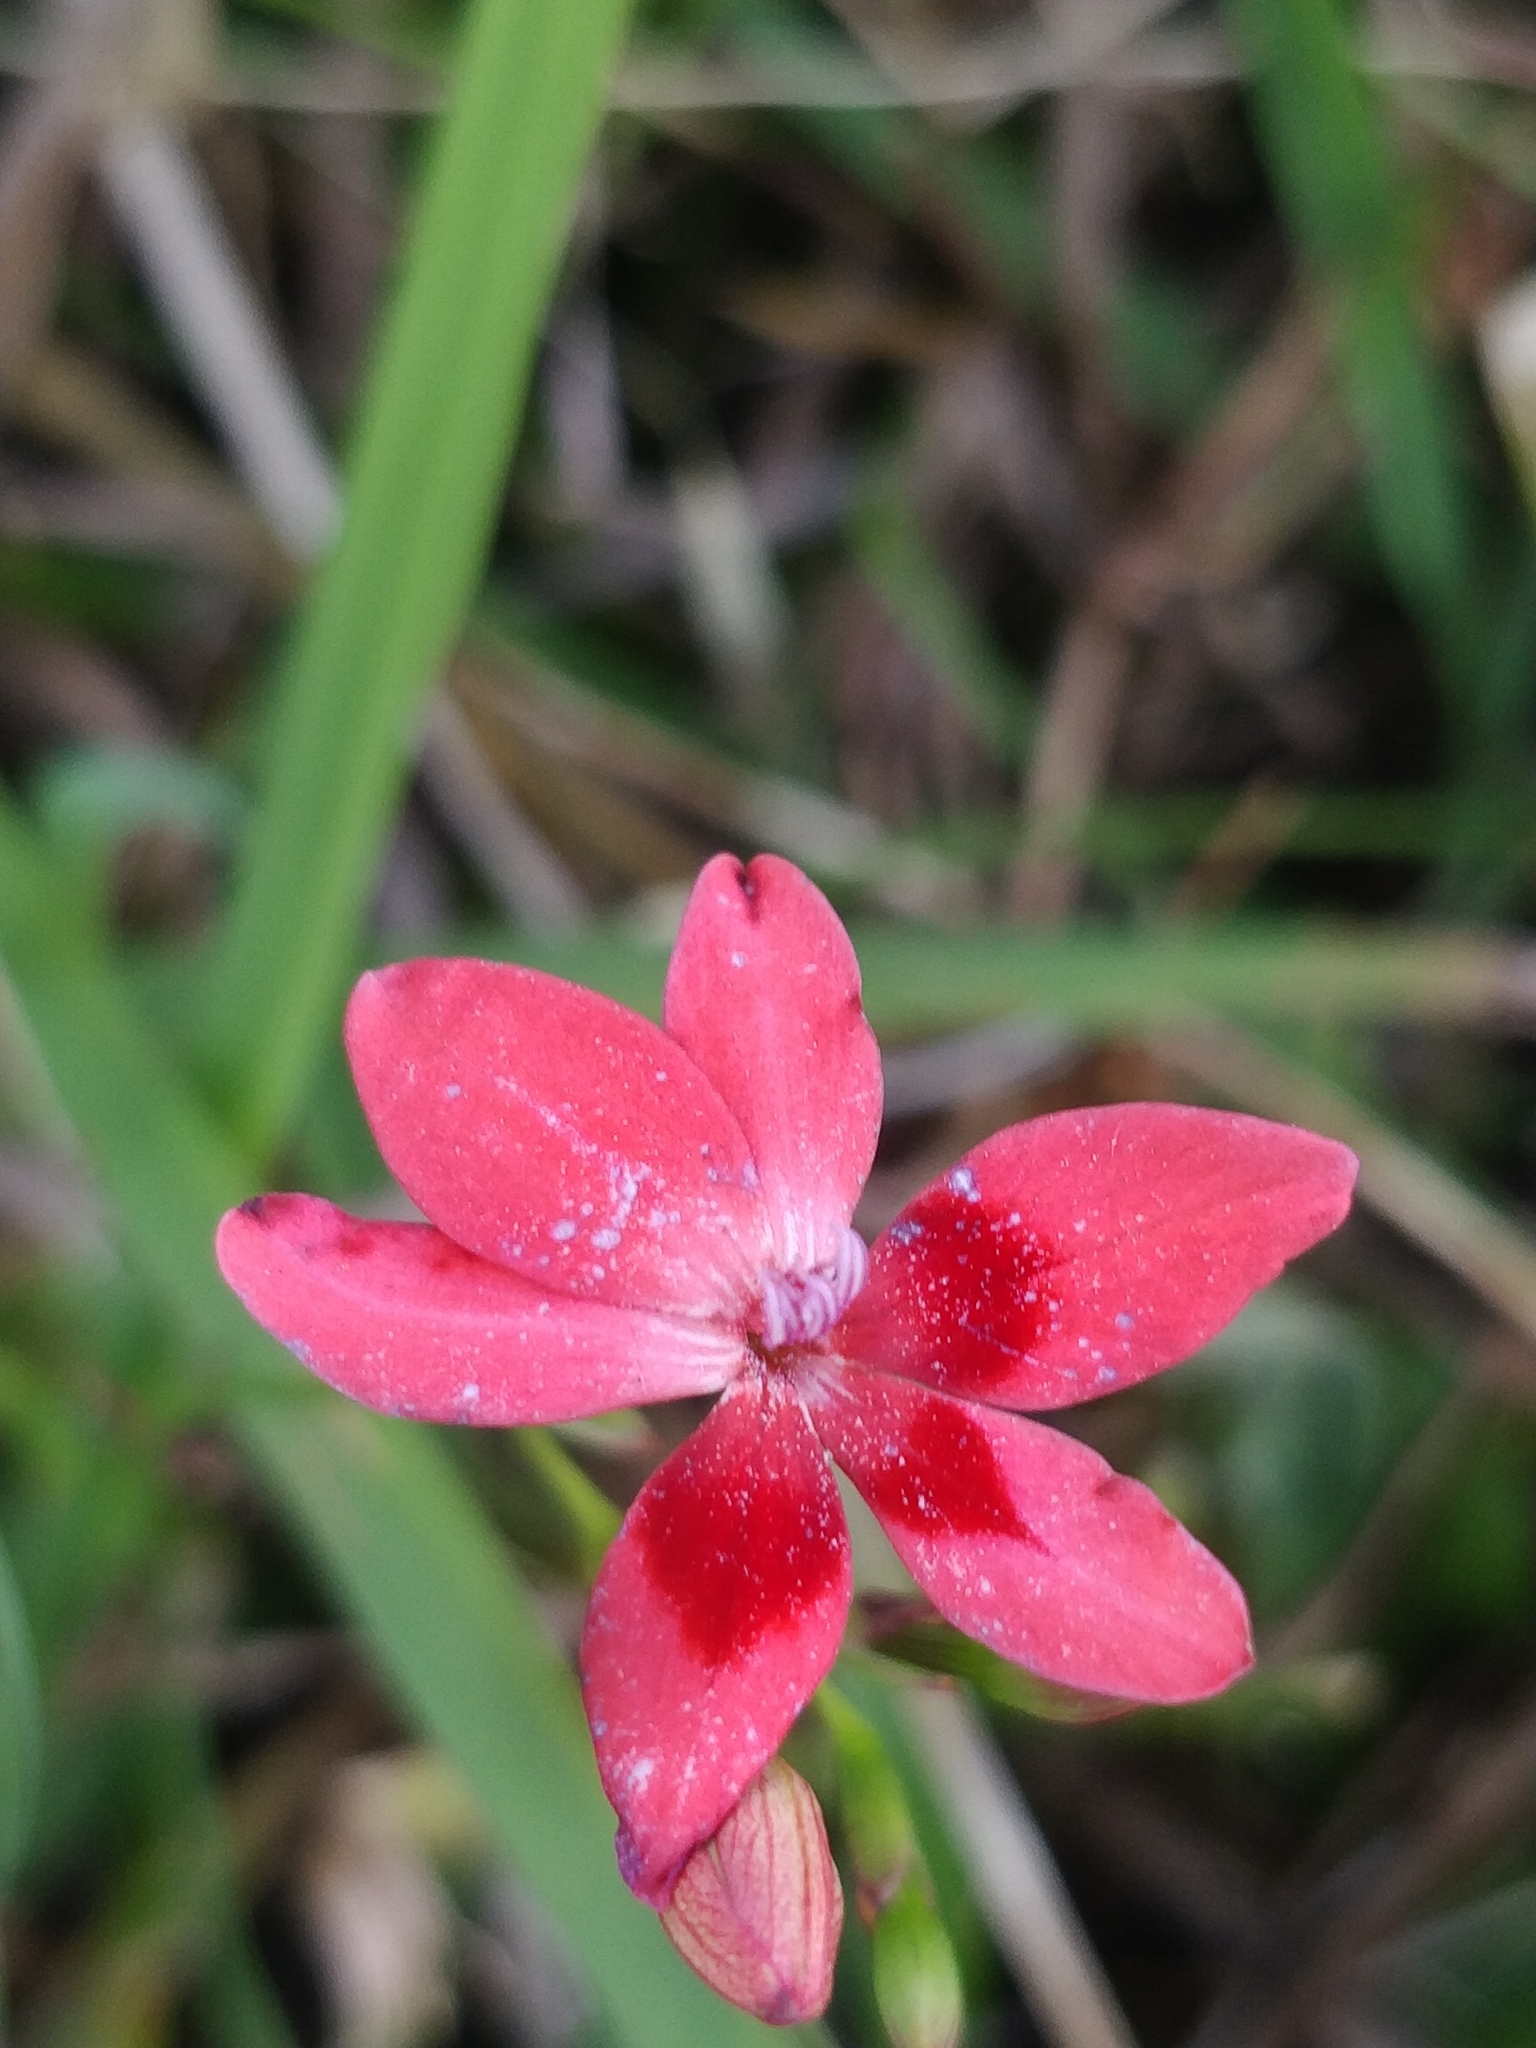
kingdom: Plantae
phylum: Tracheophyta
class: Liliopsida
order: Asparagales
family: Iridaceae
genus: Freesia
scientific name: Freesia laxa
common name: False freesia
